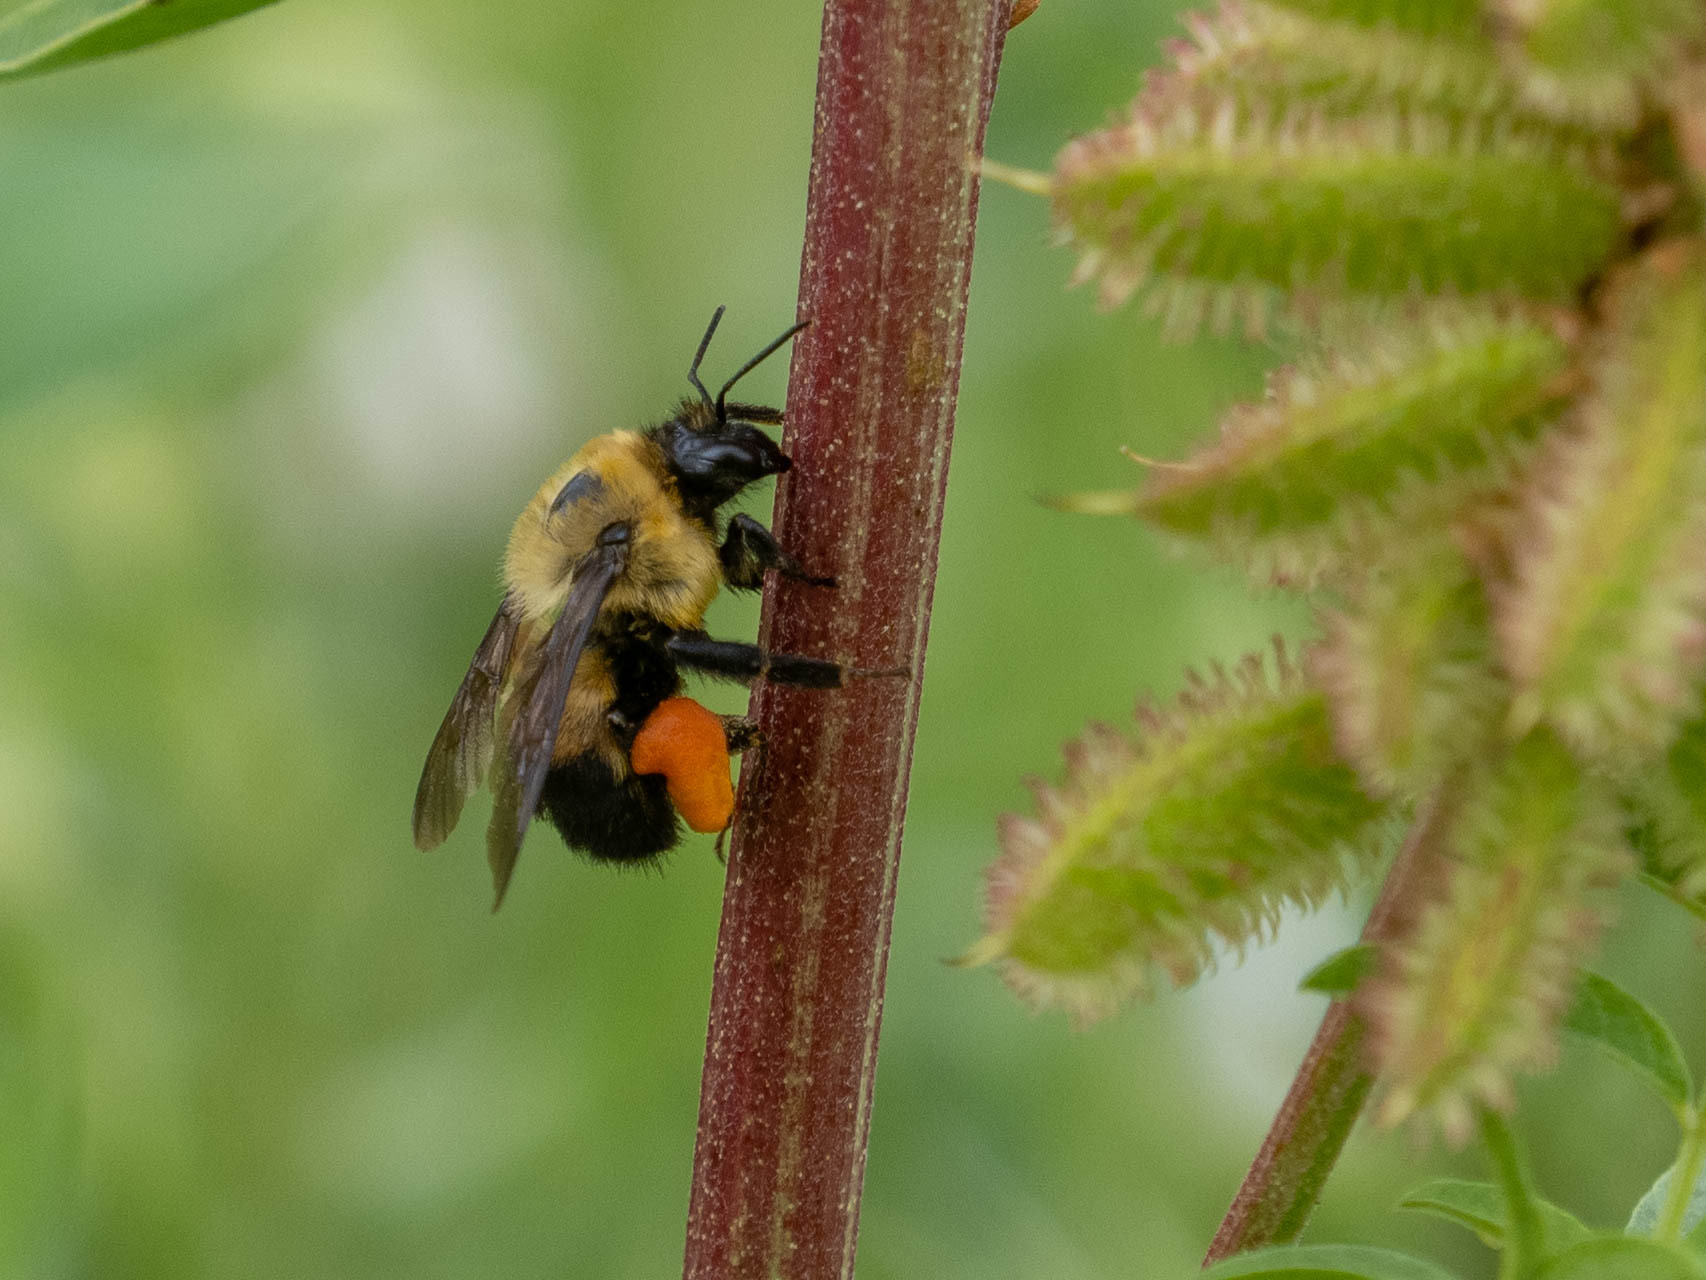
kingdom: Animalia
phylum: Arthropoda
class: Insecta
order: Hymenoptera
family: Apidae
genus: Bombus
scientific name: Bombus griseocollis
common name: Brown-belted bumble bee
